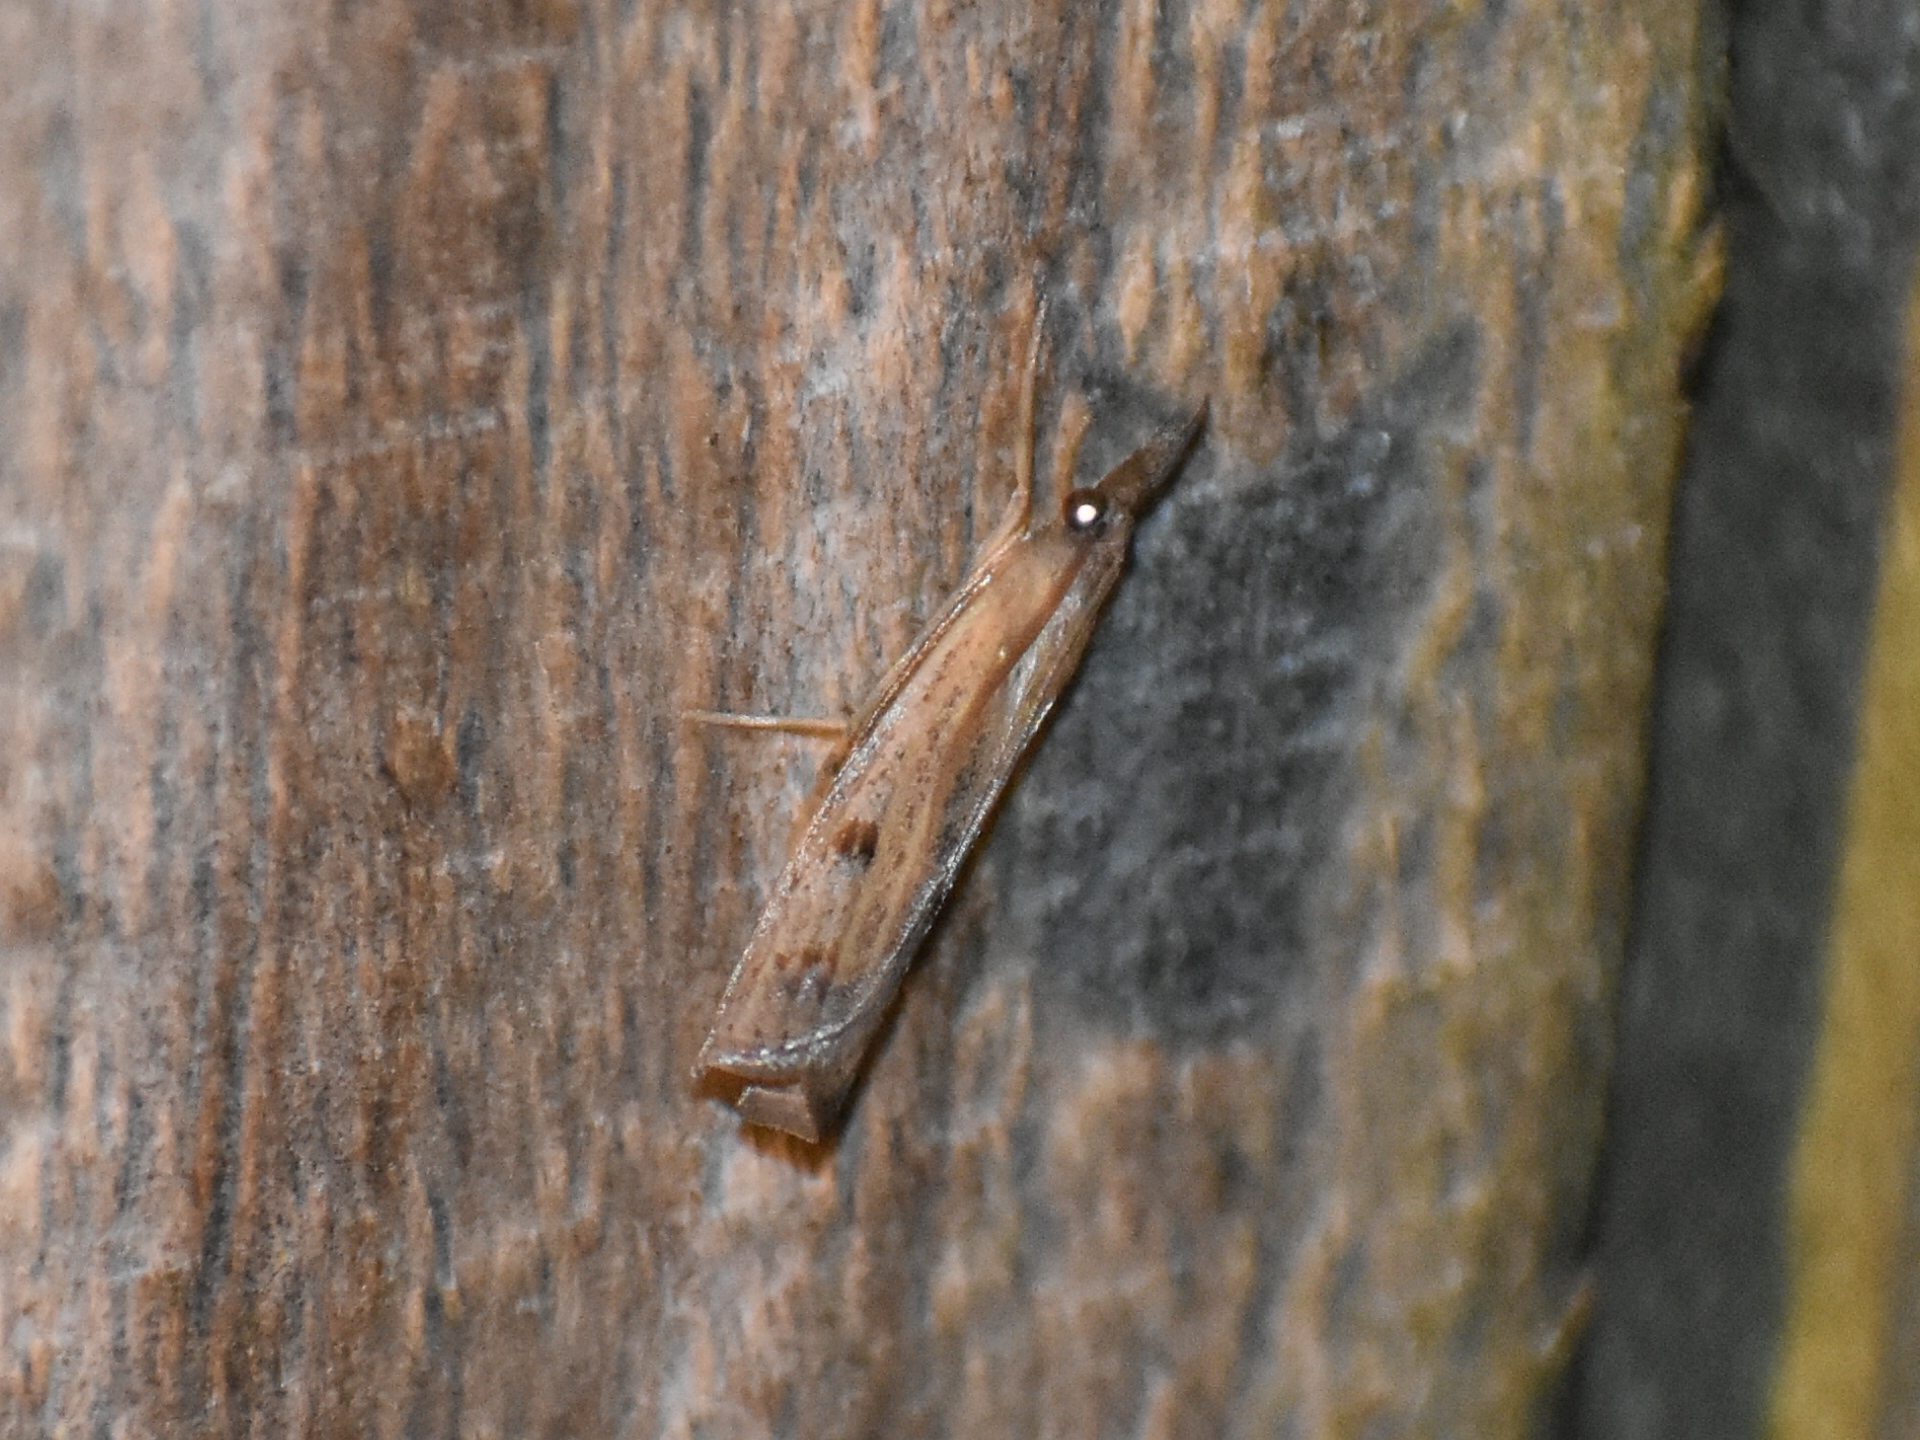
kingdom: Animalia
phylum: Arthropoda
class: Insecta
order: Lepidoptera
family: Crambidae
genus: Fissicrambus
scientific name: Fissicrambus mutabilis
